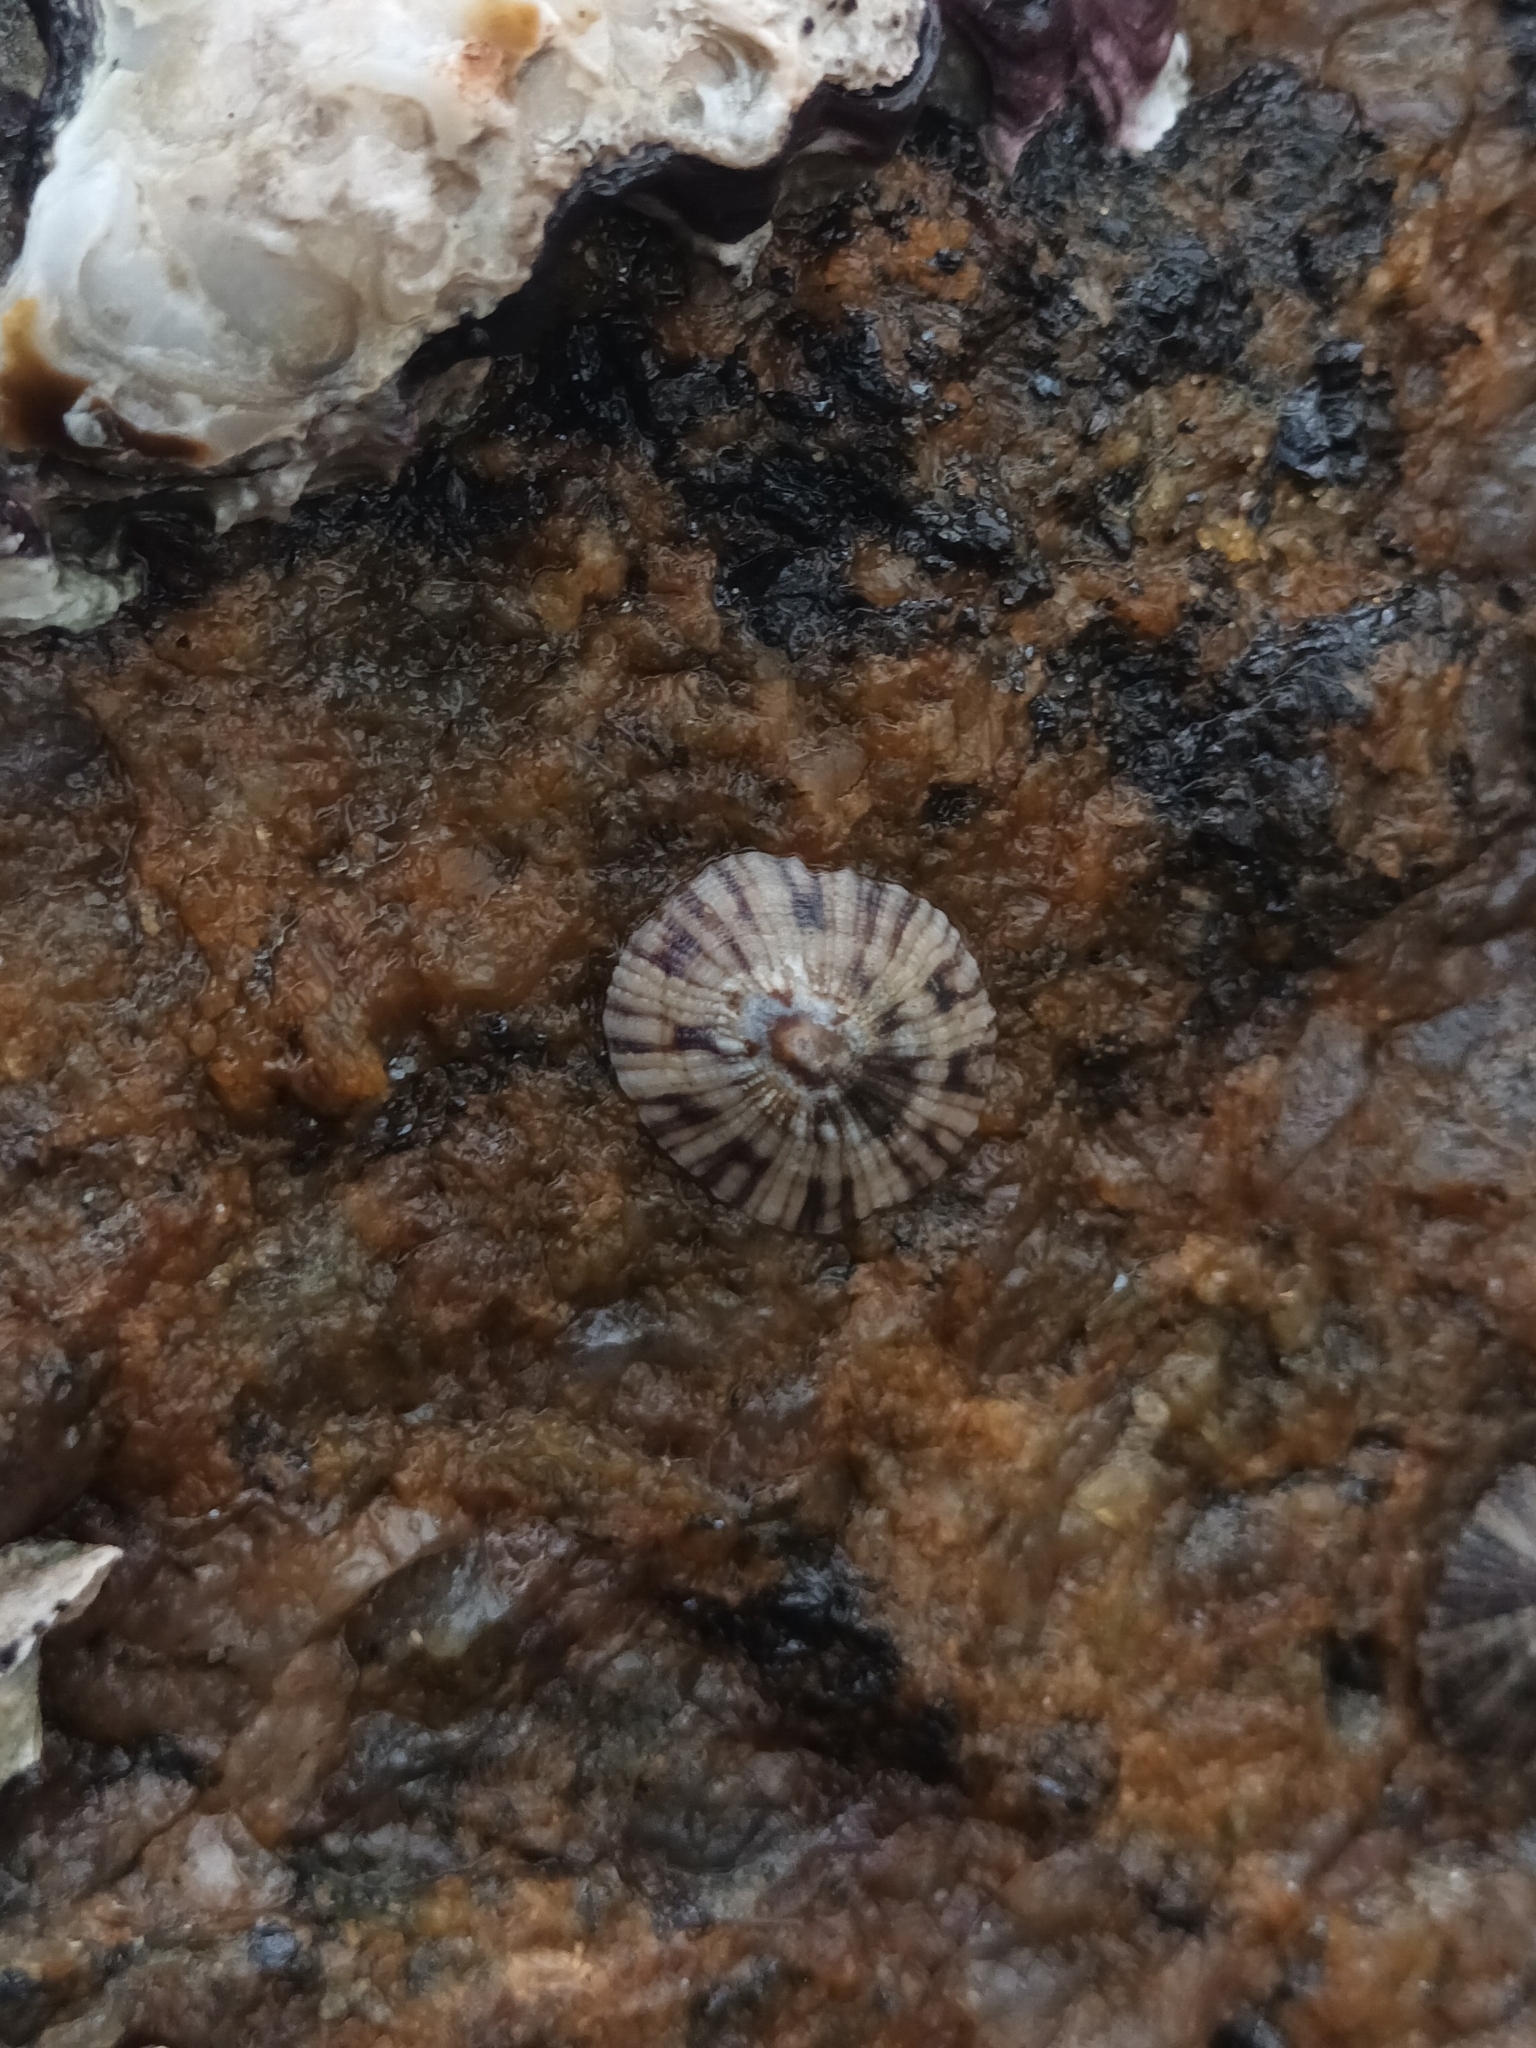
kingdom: Animalia
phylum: Mollusca
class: Gastropoda
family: Nacellidae
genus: Cellana
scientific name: Cellana radians
